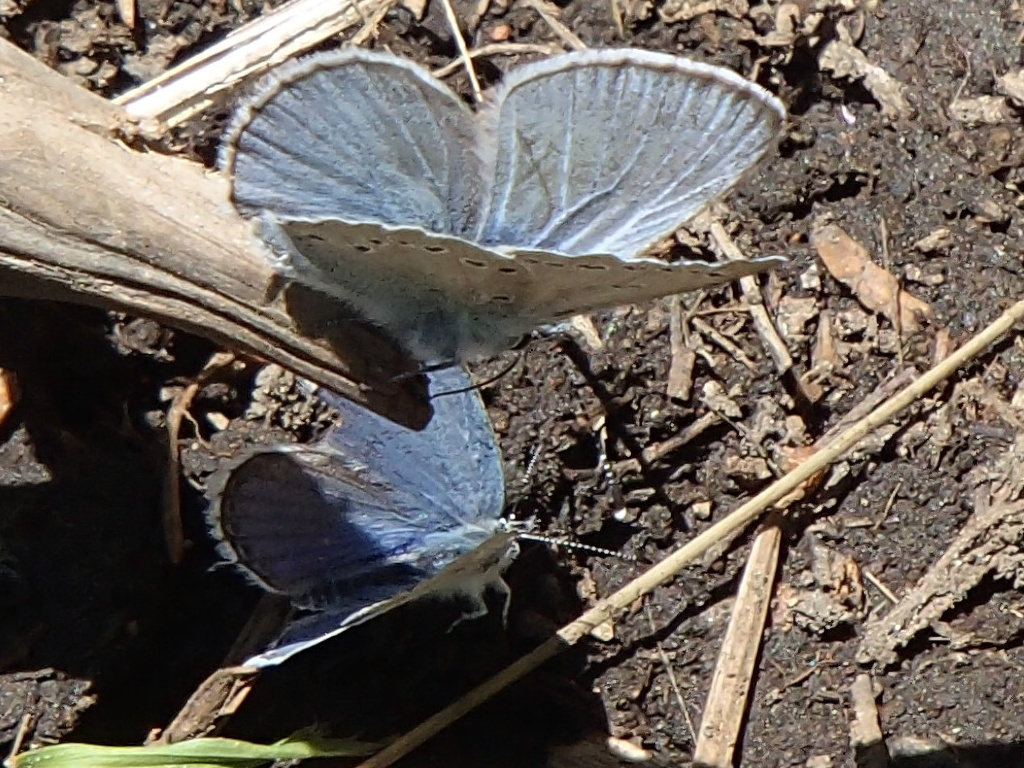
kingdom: Animalia
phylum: Arthropoda
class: Insecta
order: Lepidoptera
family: Lycaenidae
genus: Glaucopsyche
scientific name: Glaucopsyche lygdamus
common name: Silvery blue
